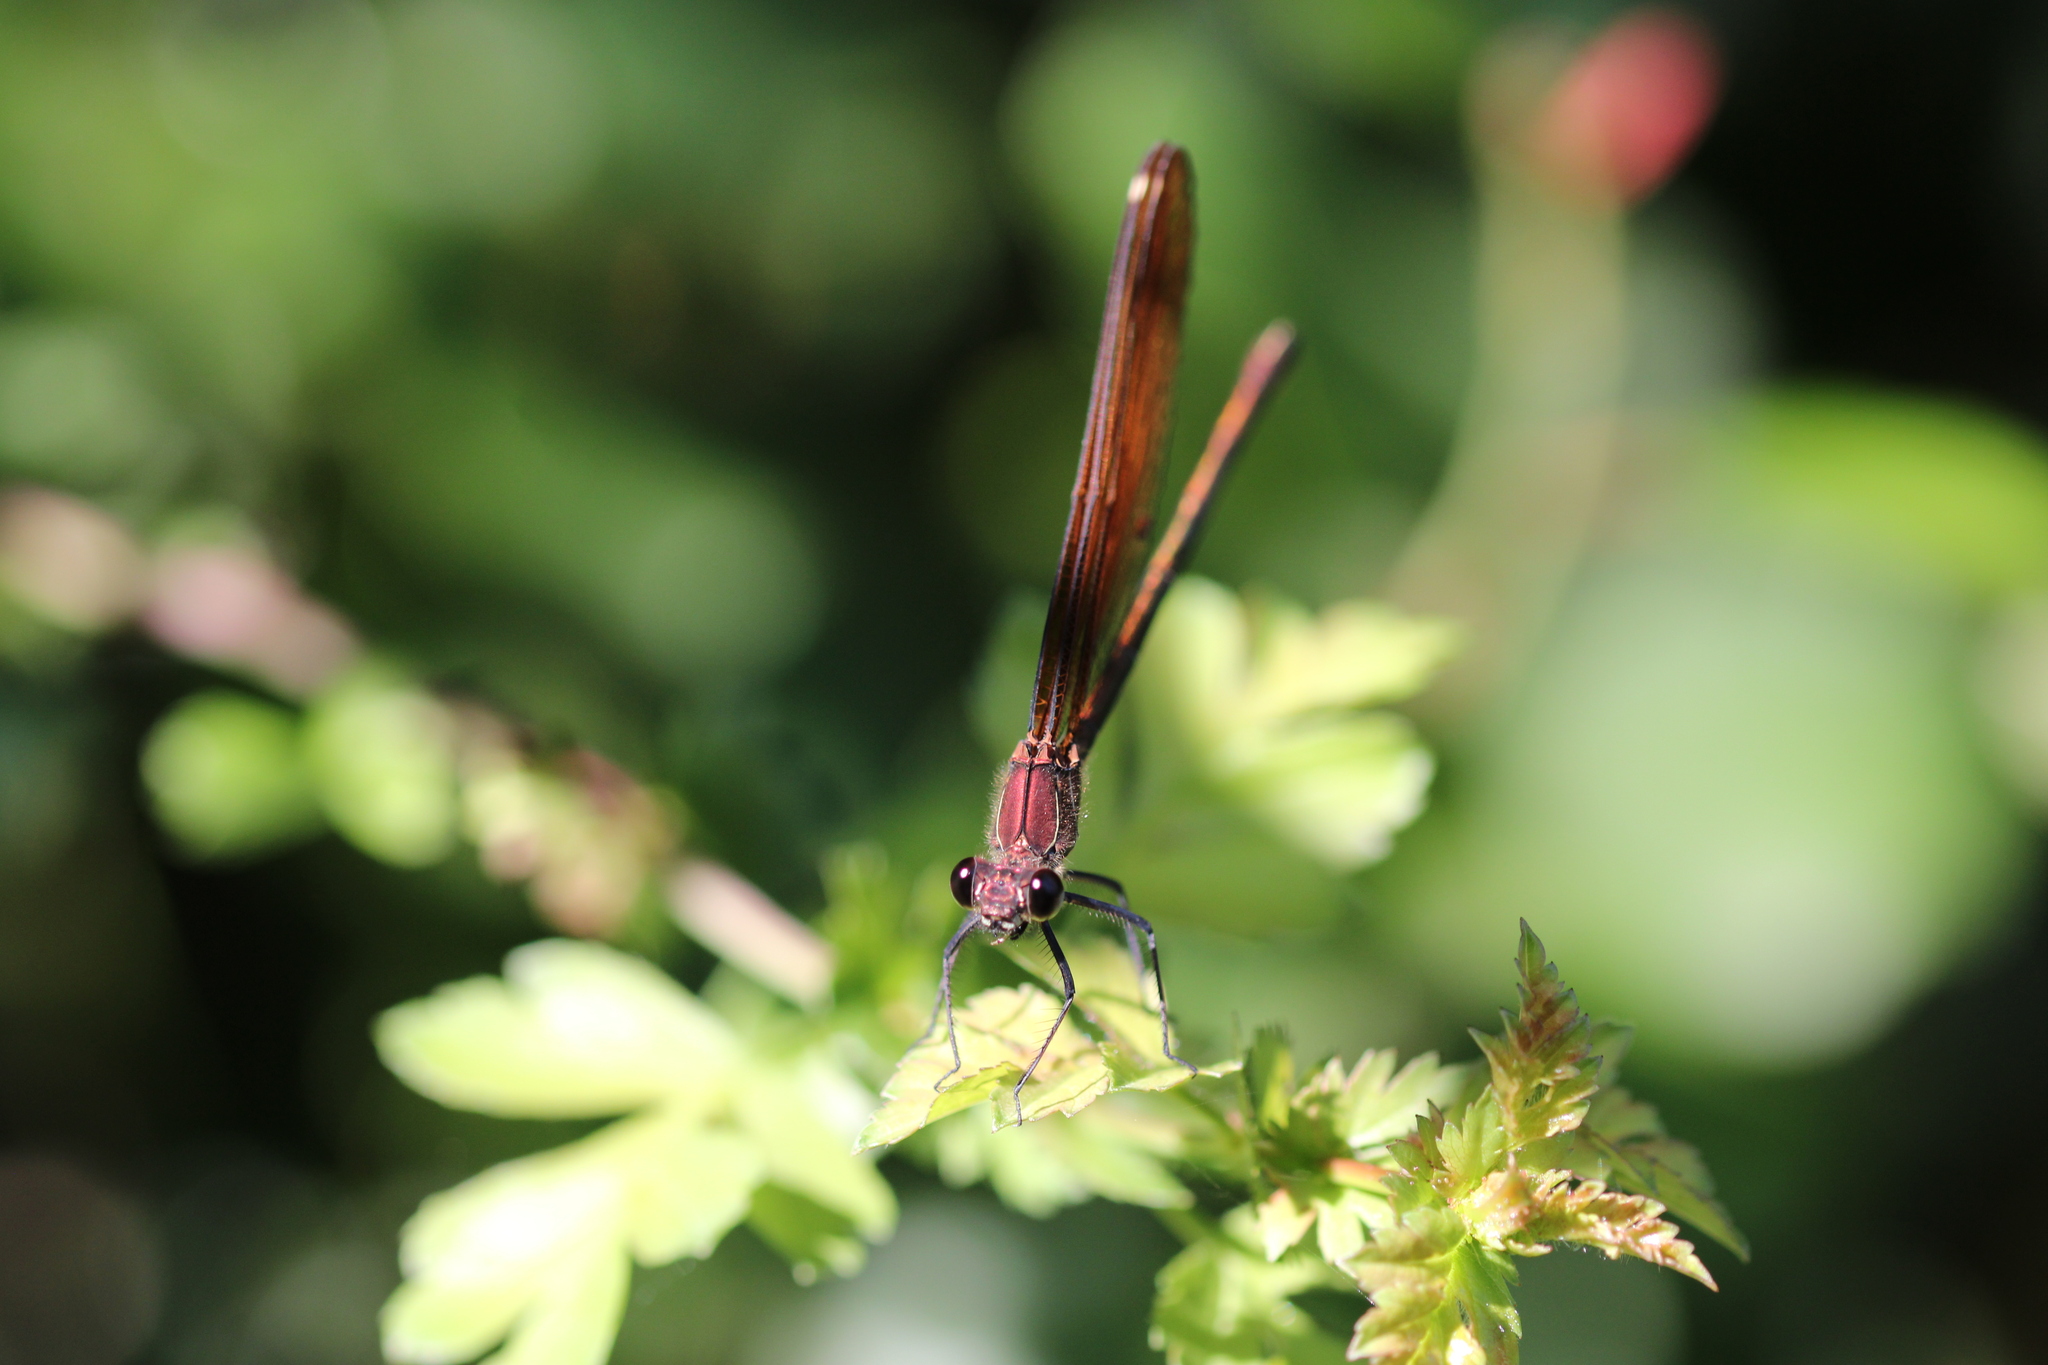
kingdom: Animalia
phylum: Arthropoda
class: Insecta
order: Odonata
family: Calopterygidae
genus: Calopteryx
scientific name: Calopteryx haemorrhoidalis
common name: Copper demoiselle
